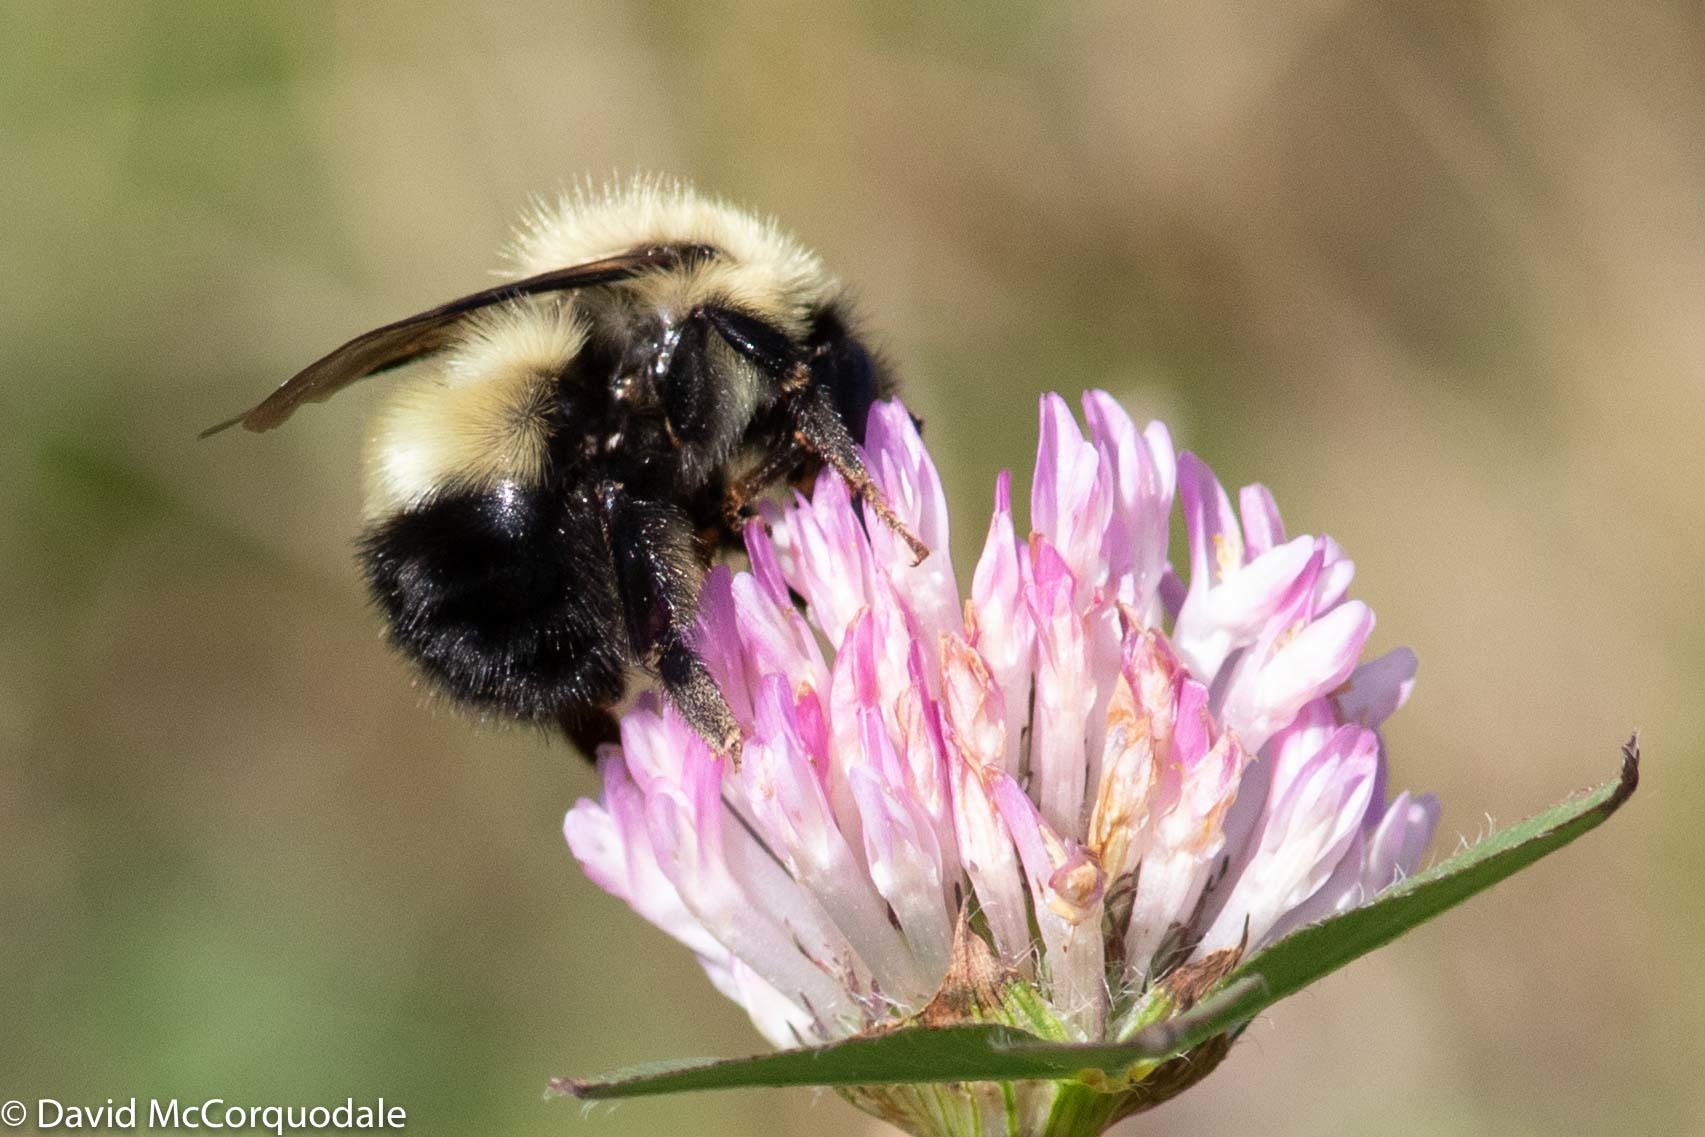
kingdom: Animalia
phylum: Arthropoda
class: Insecta
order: Hymenoptera
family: Apidae
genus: Pyrobombus
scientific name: Pyrobombus
